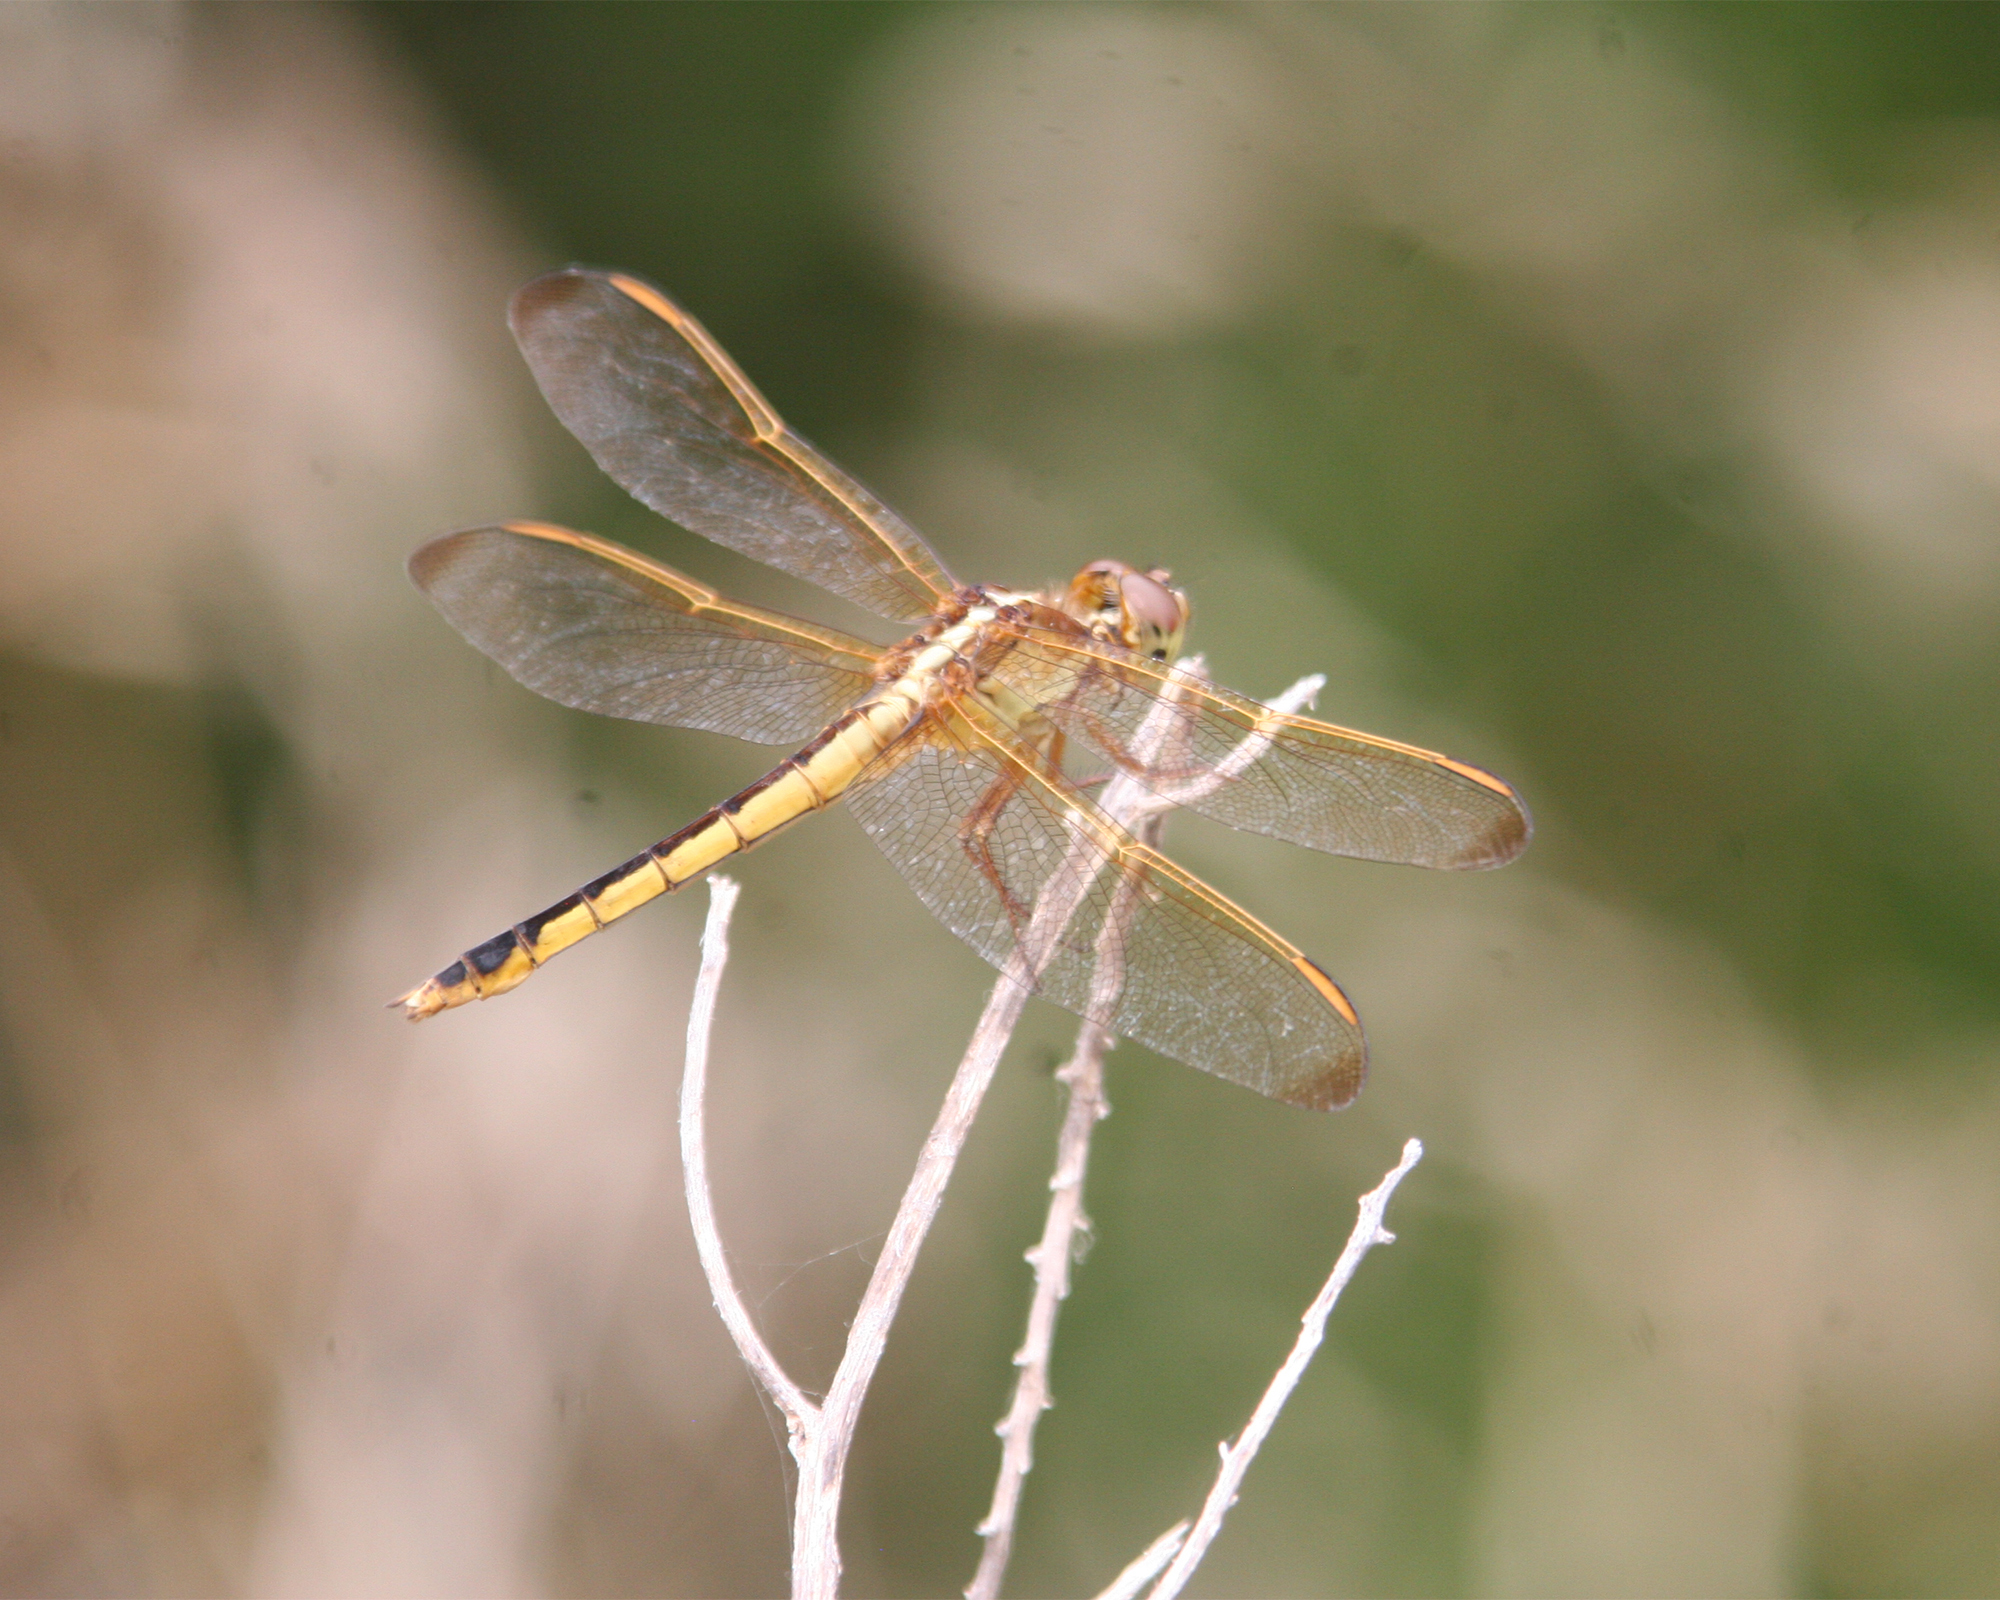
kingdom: Animalia
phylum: Arthropoda
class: Insecta
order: Odonata
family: Libellulidae
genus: Libellula
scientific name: Libellula needhami
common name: Needham's skimmer
